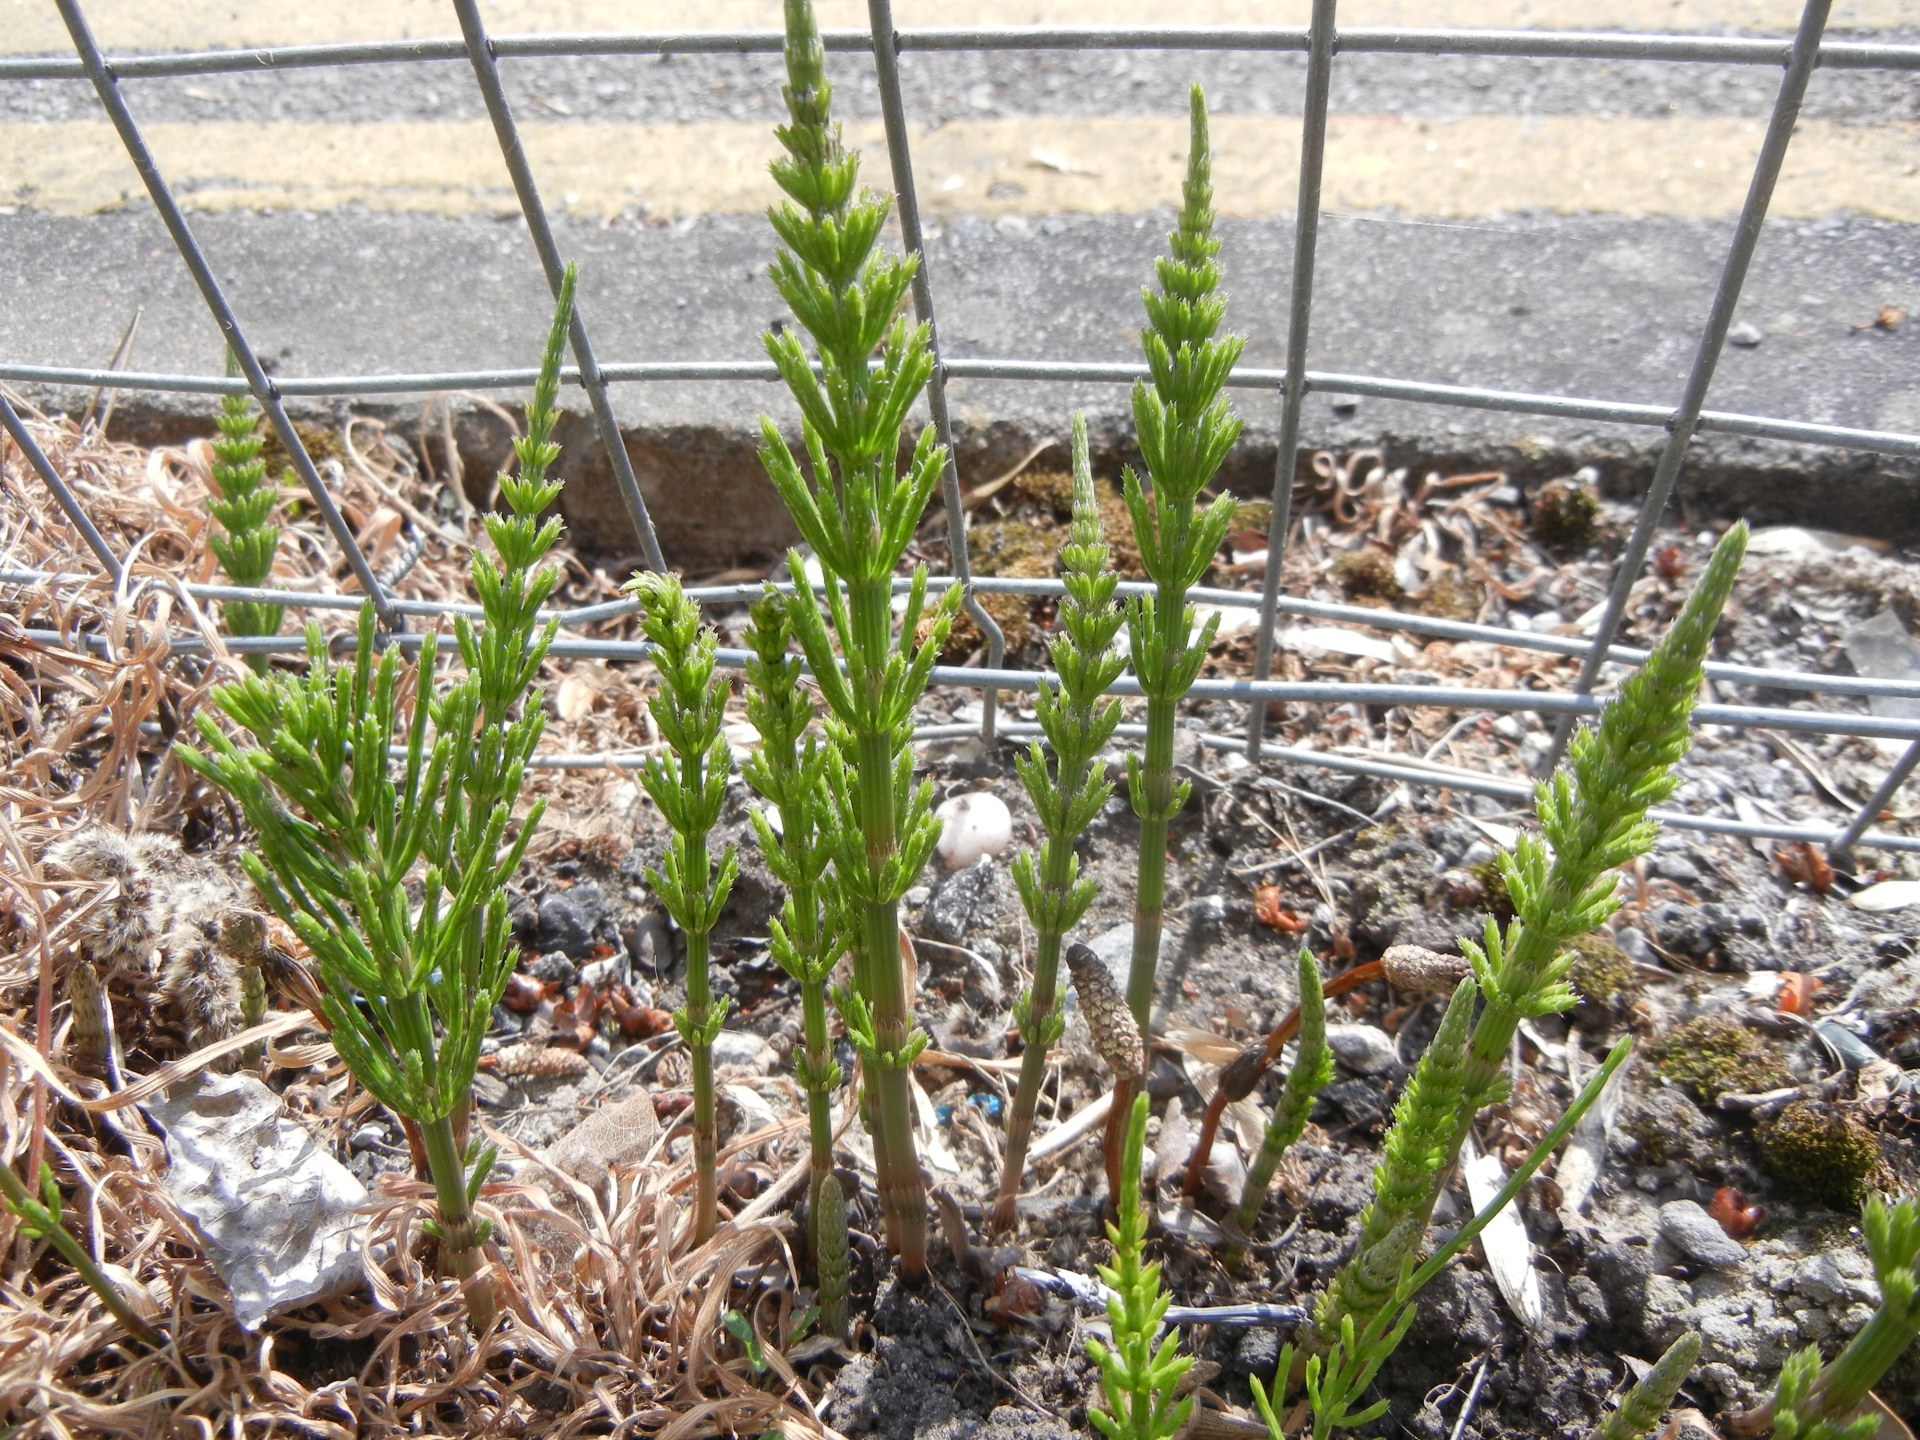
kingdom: Plantae
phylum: Tracheophyta
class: Polypodiopsida
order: Equisetales
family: Equisetaceae
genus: Equisetum
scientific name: Equisetum arvense
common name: Field horsetail
